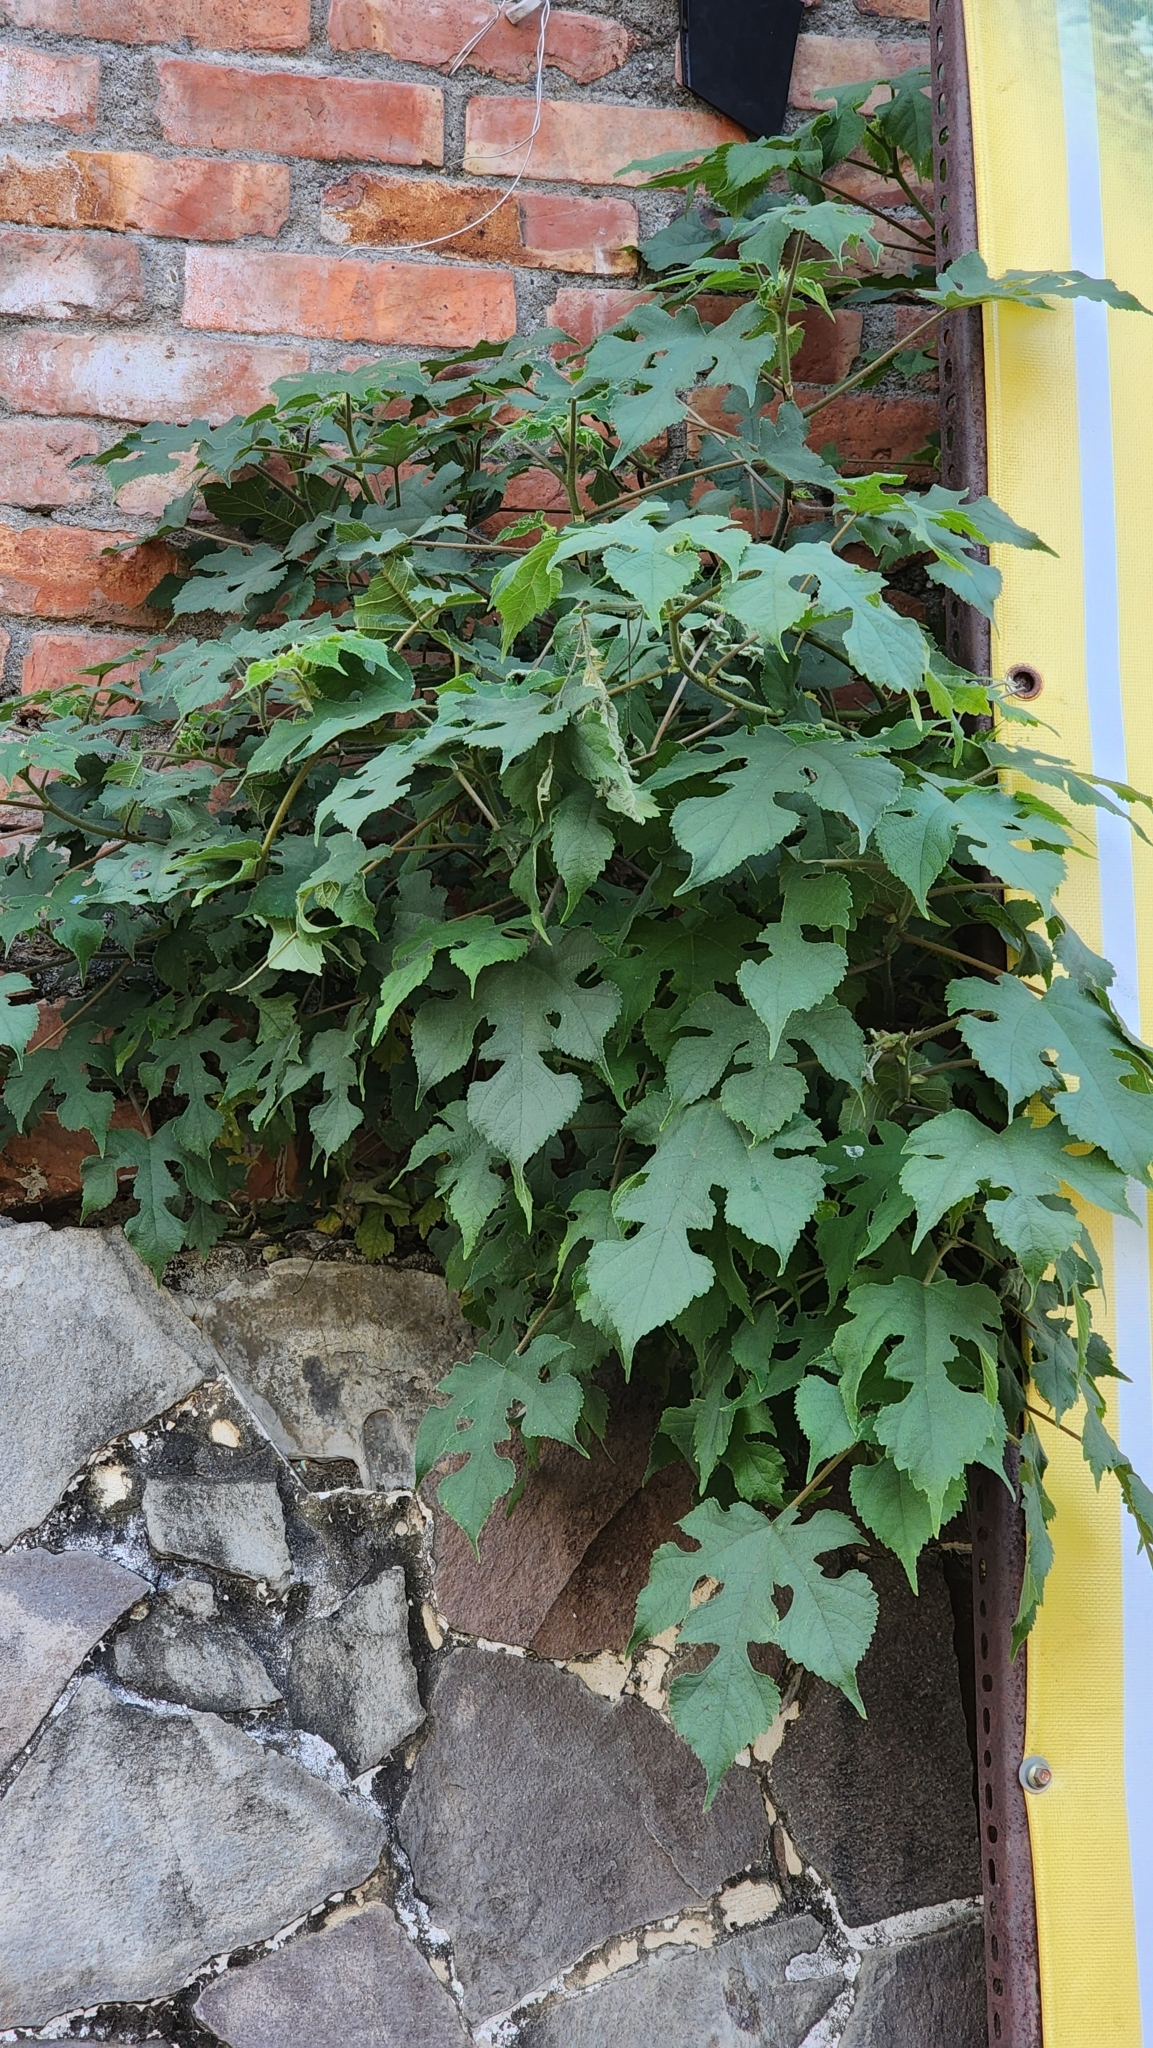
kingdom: Plantae
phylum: Tracheophyta
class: Magnoliopsida
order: Rosales
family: Moraceae
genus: Broussonetia
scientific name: Broussonetia papyrifera
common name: Paper mulberry
